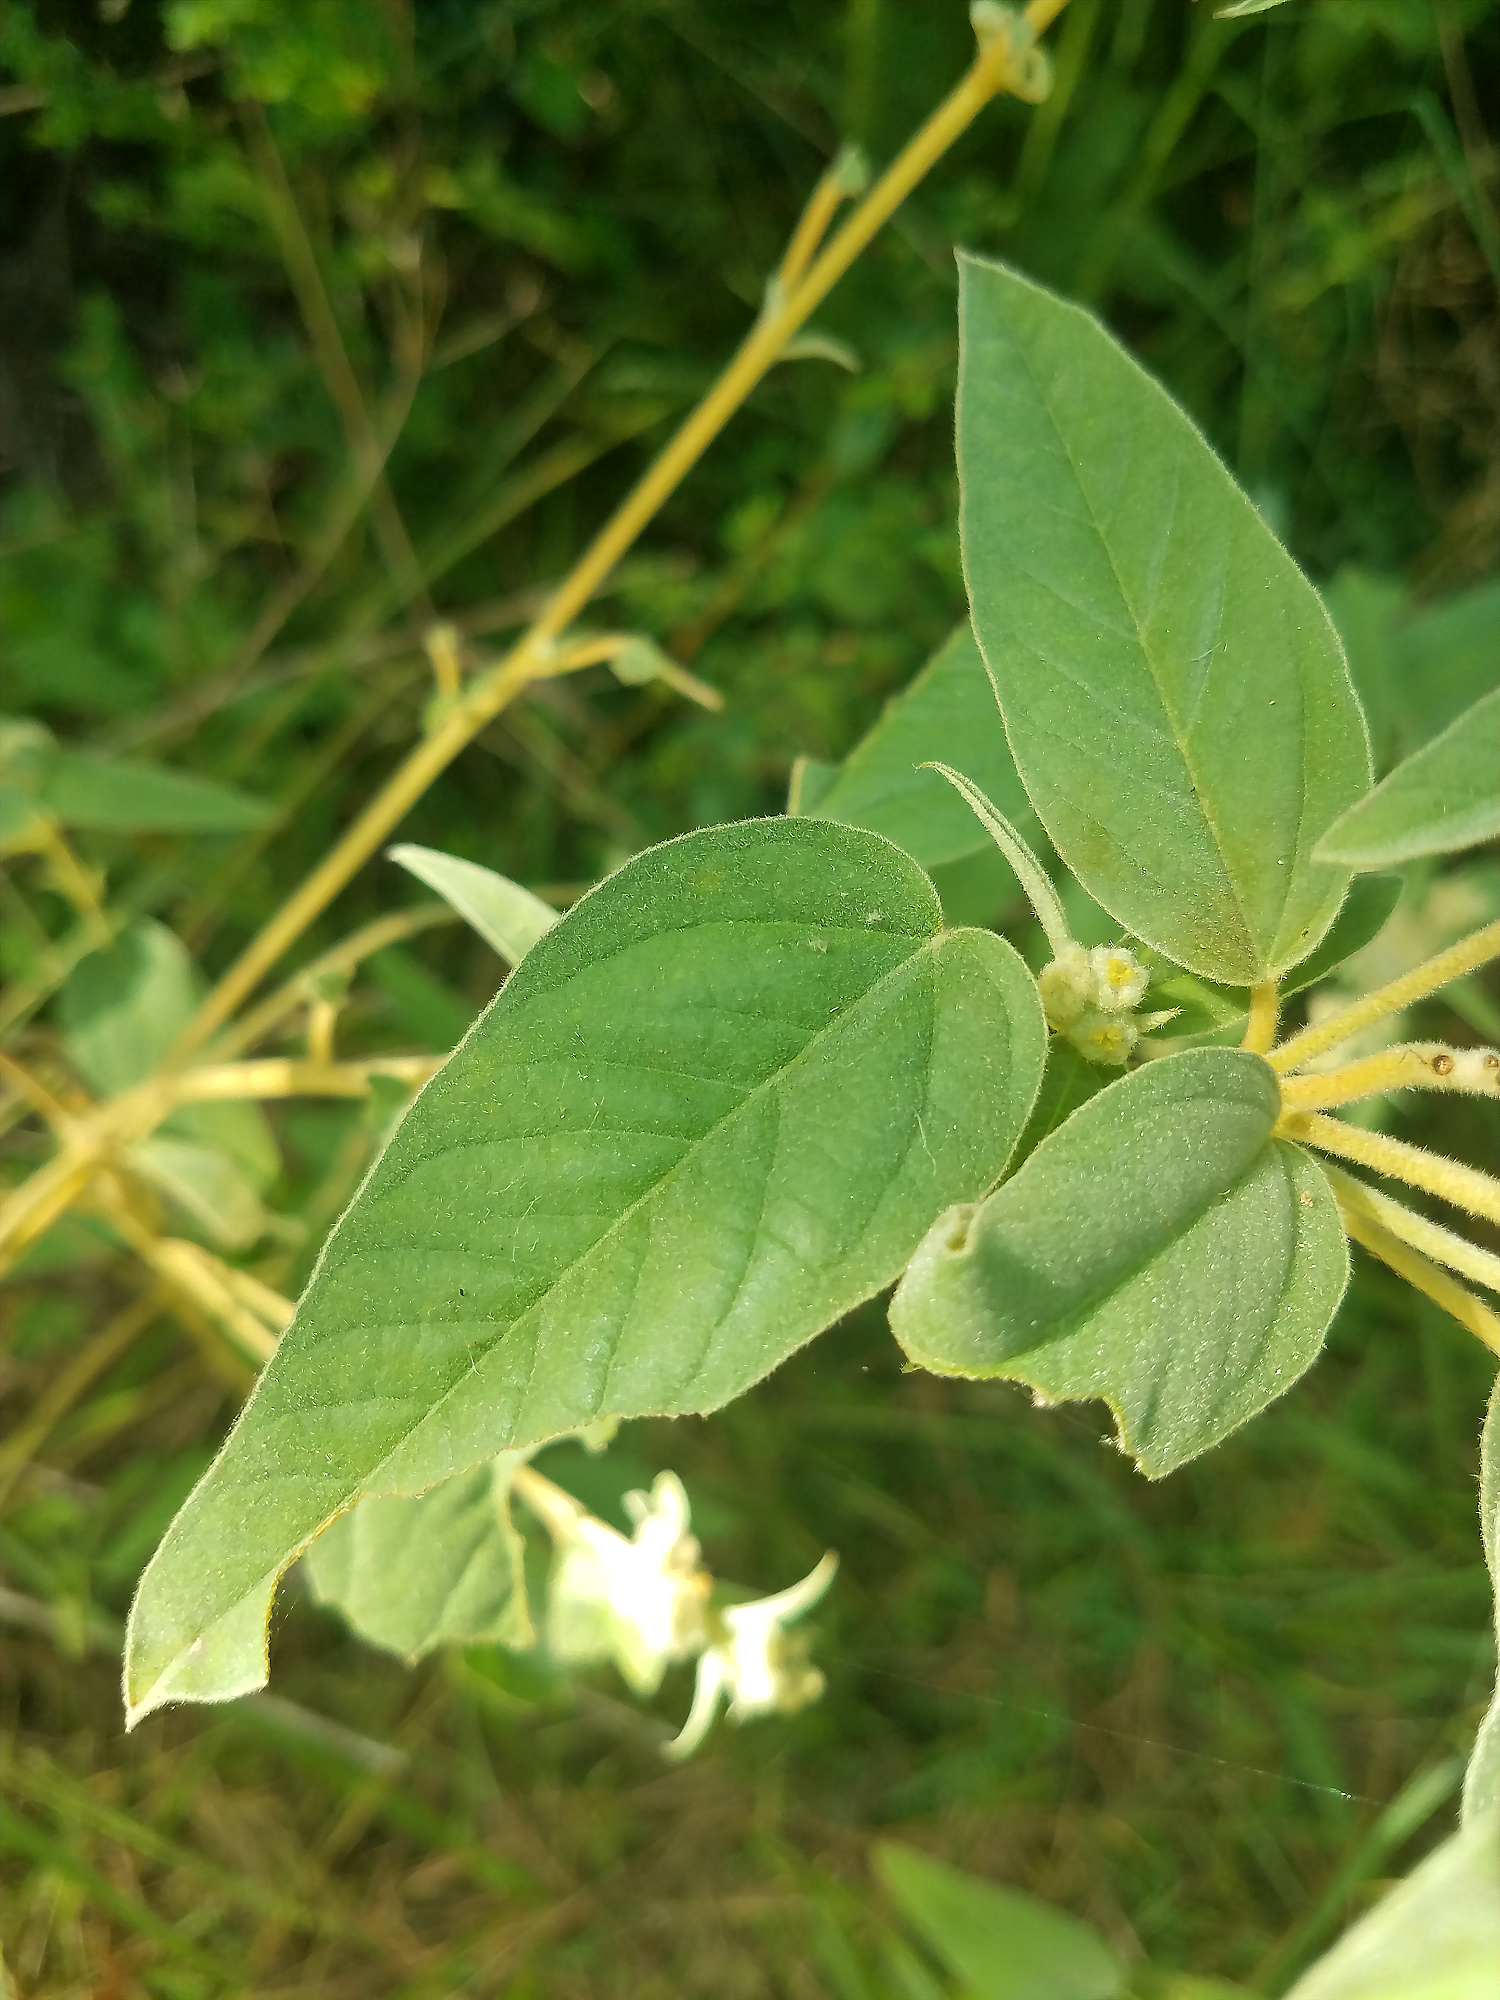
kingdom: Plantae
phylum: Tracheophyta
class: Magnoliopsida
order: Malpighiales
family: Euphorbiaceae
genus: Croton
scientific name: Croton lindheimeri
